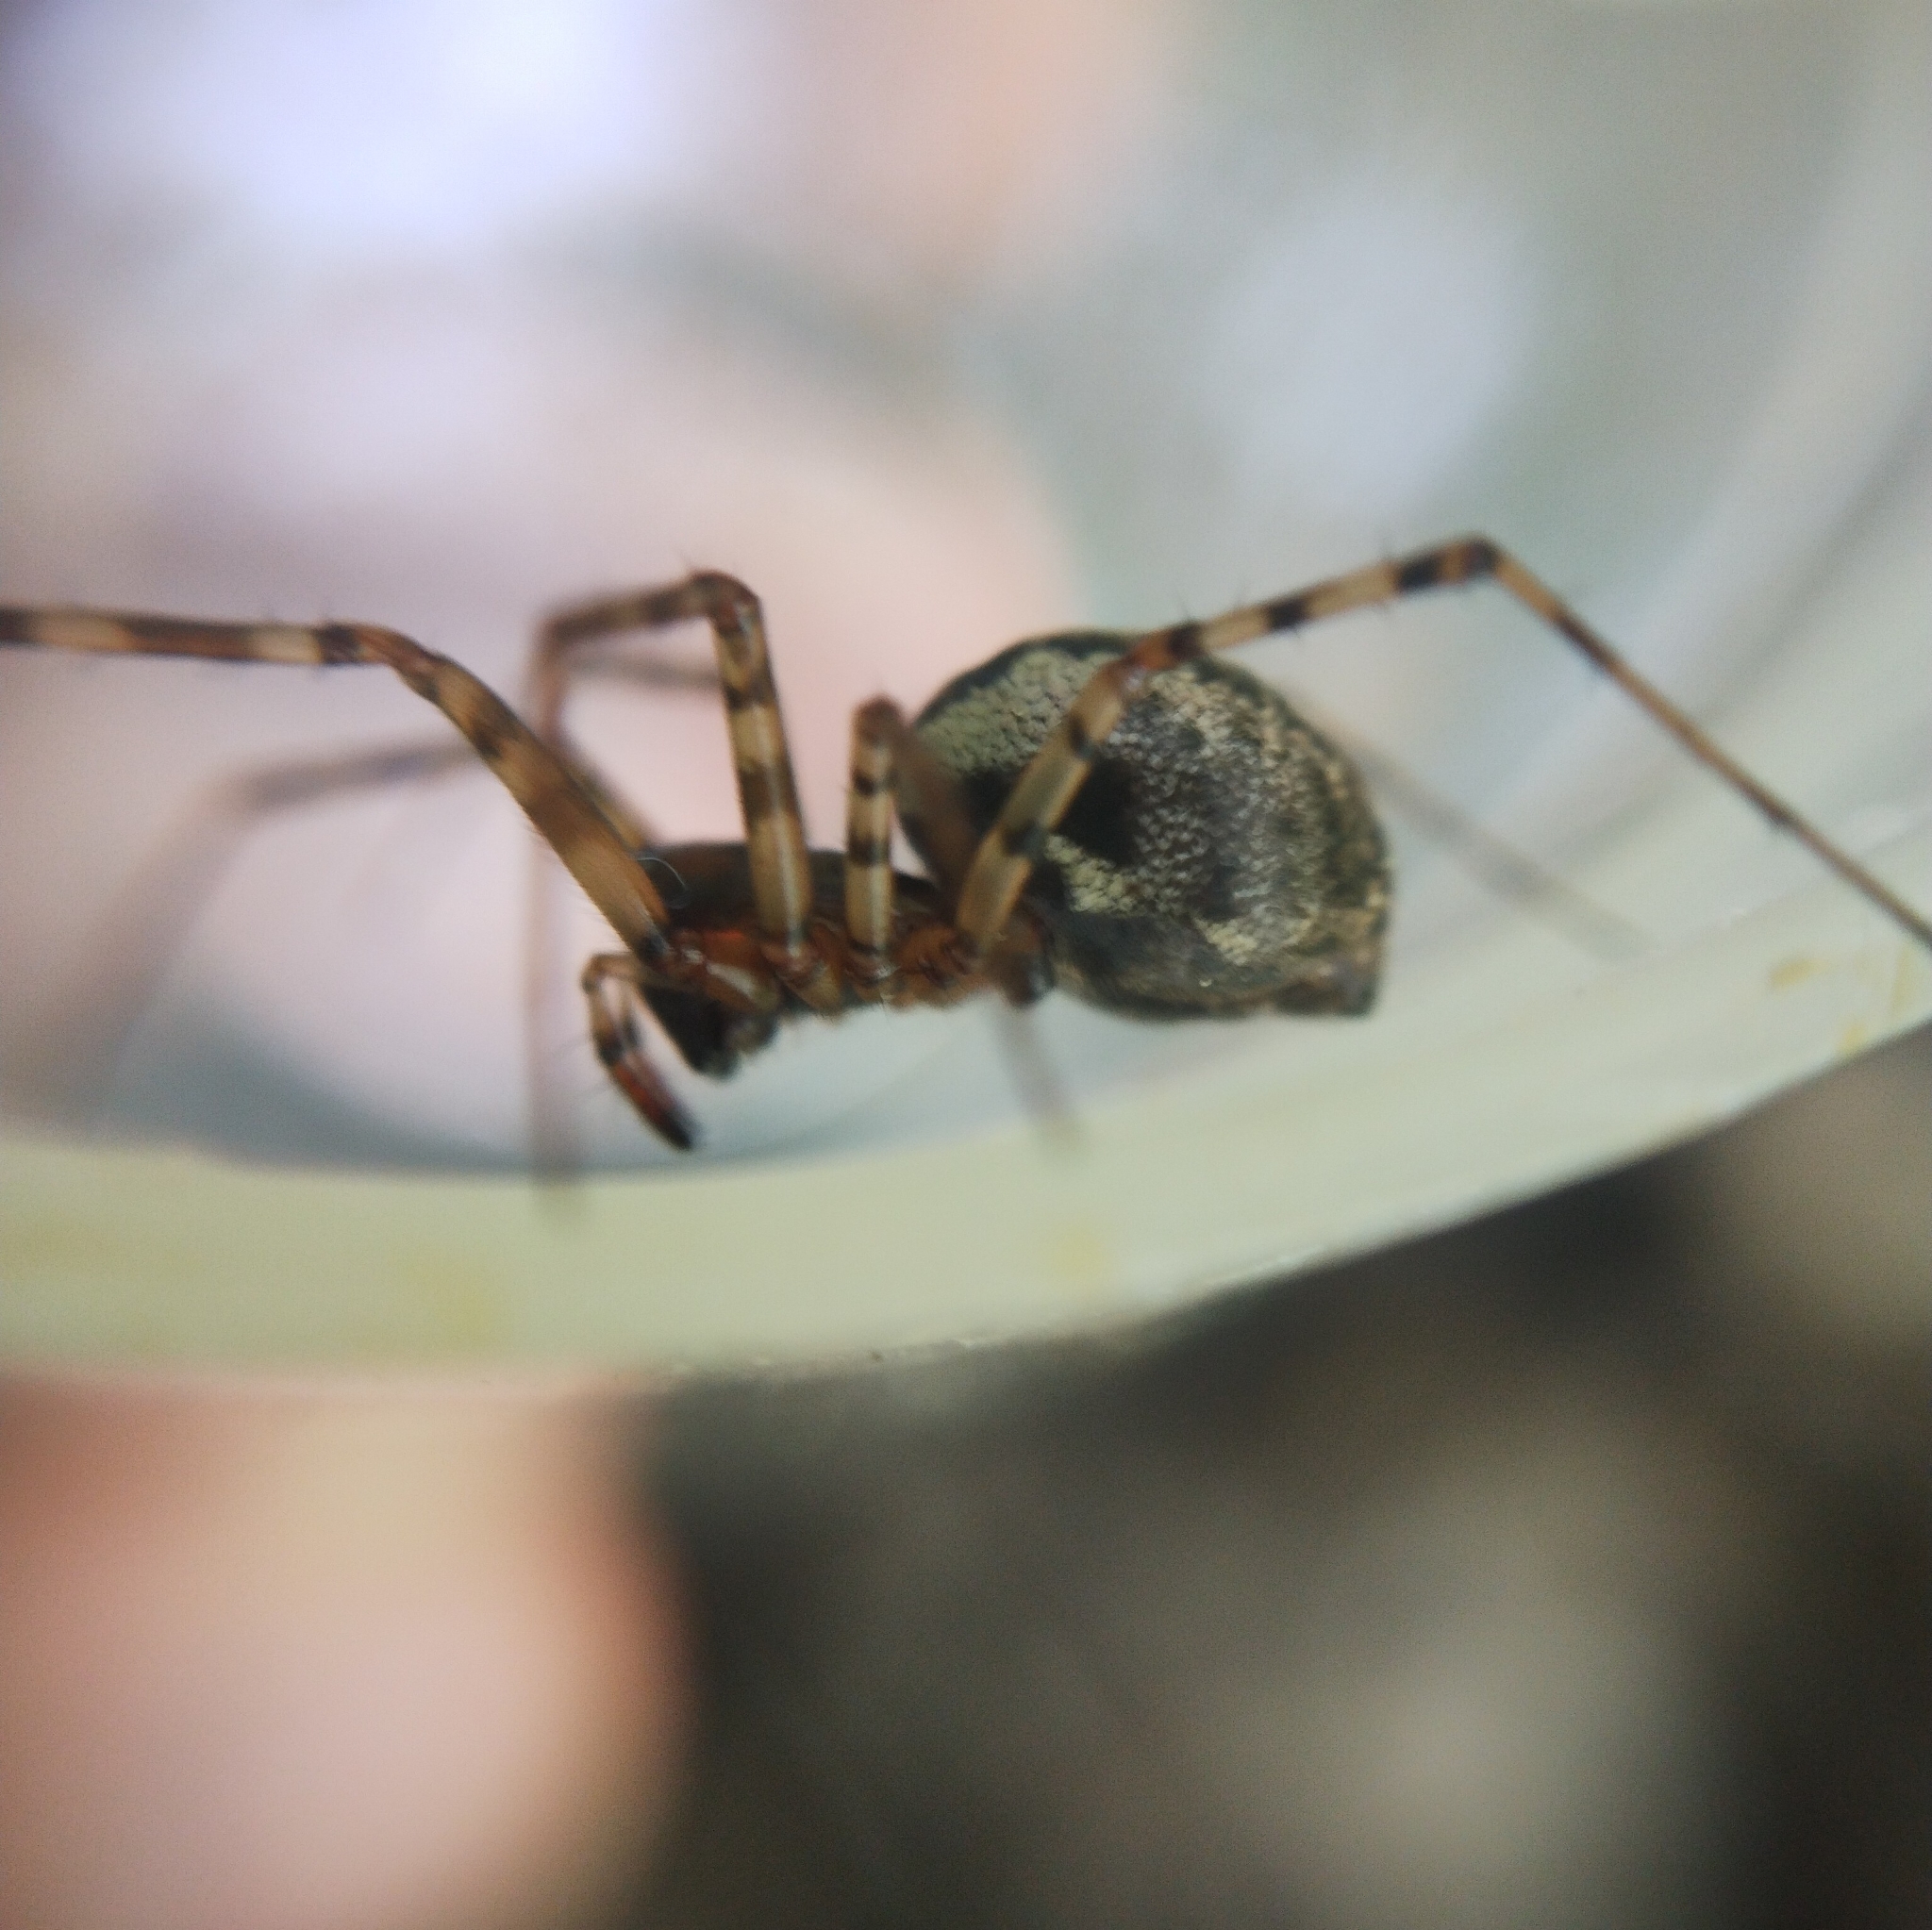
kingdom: Animalia
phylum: Arthropoda
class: Arachnida
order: Araneae
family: Linyphiidae
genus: Neriene
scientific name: Neriene montana
